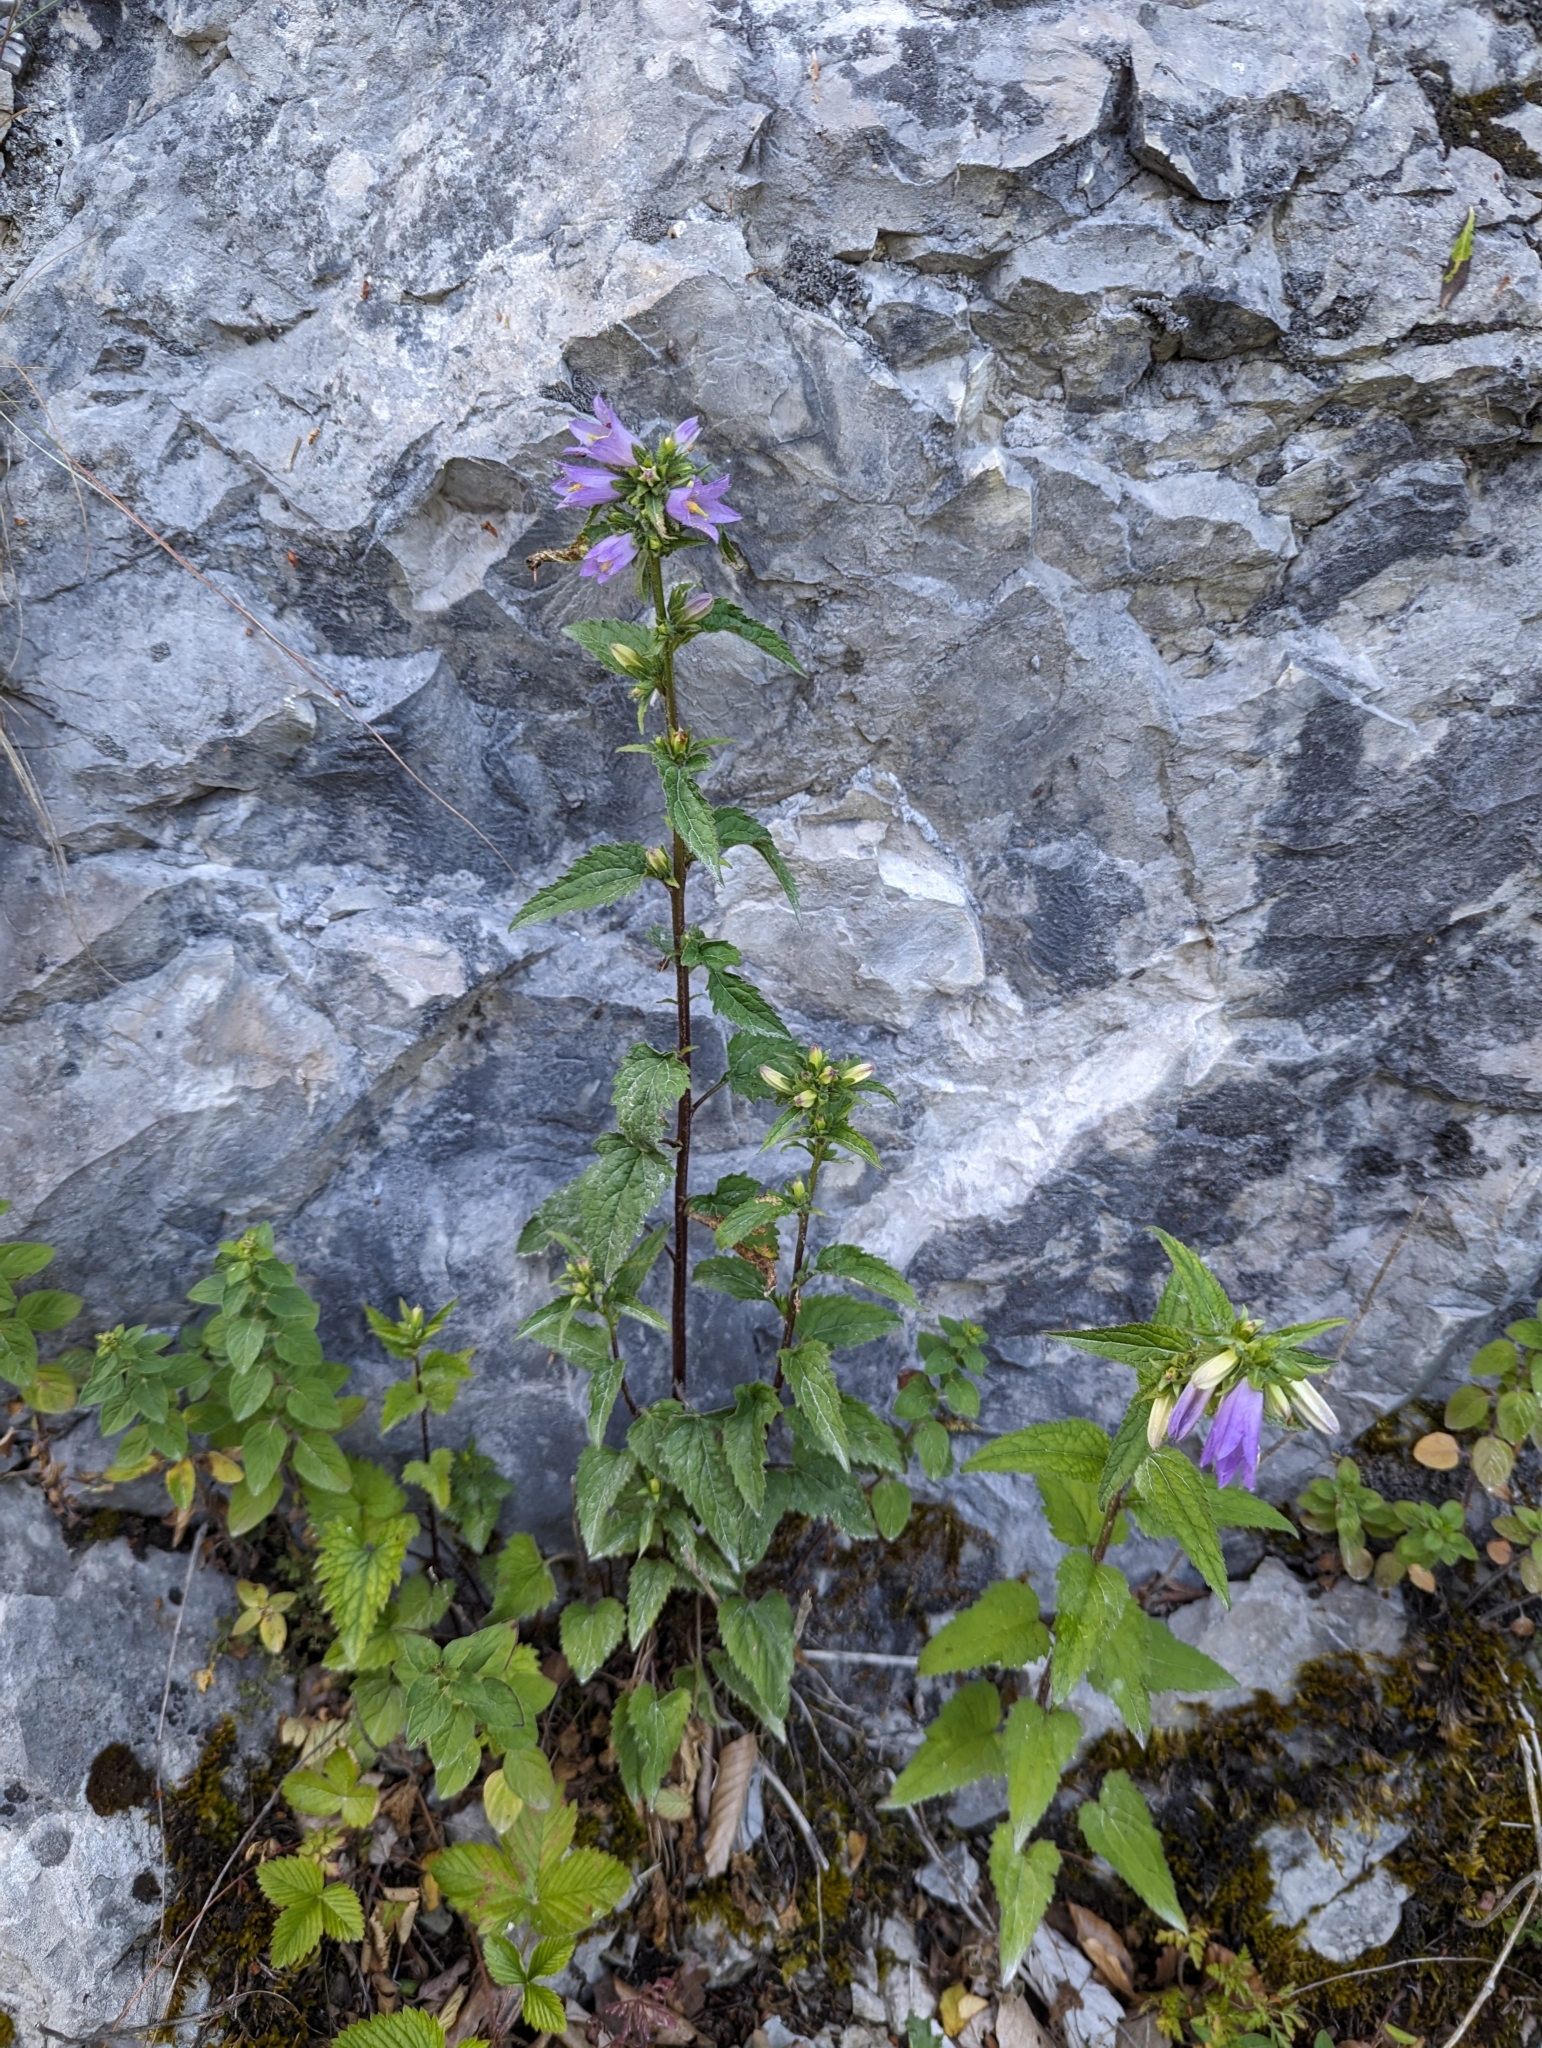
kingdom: Plantae
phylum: Tracheophyta
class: Magnoliopsida
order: Asterales
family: Campanulaceae
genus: Campanula
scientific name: Campanula trachelium
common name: Nettle-leaved bellflower
